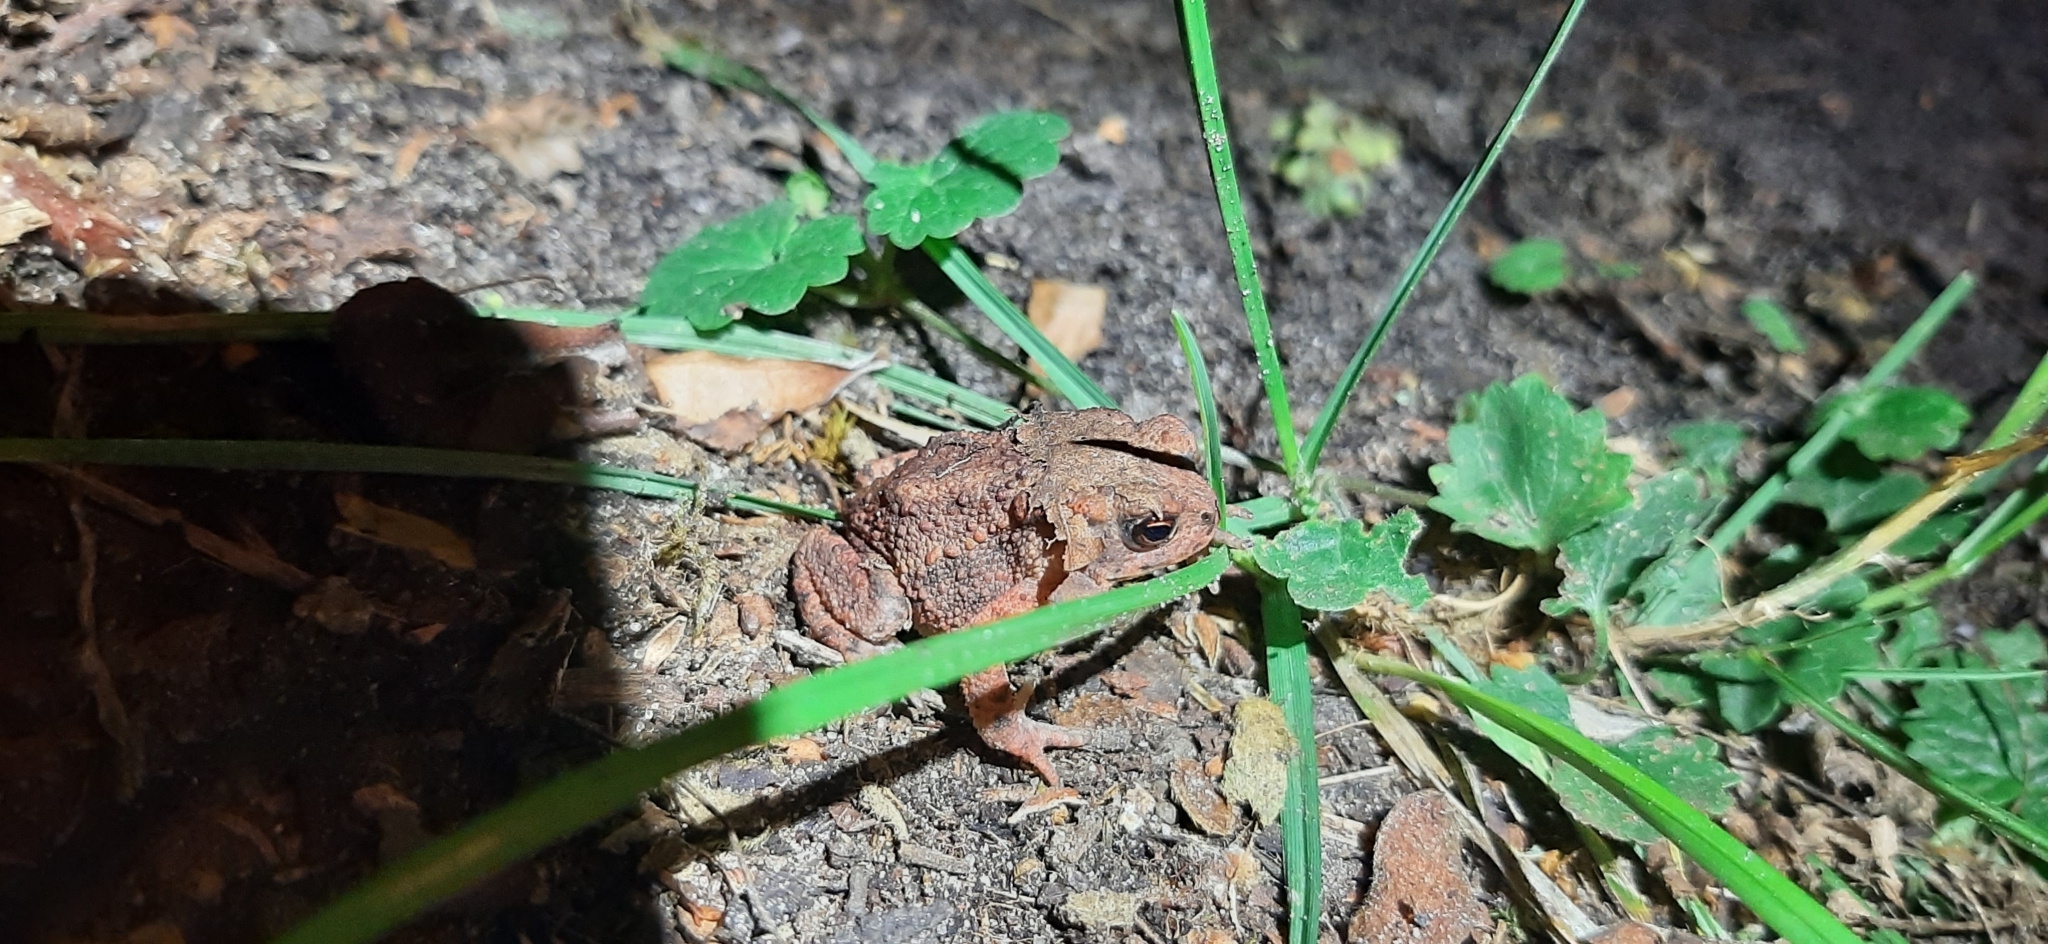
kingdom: Animalia
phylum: Chordata
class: Amphibia
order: Anura
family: Bufonidae
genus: Bufo
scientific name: Bufo bufo
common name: Common toad
